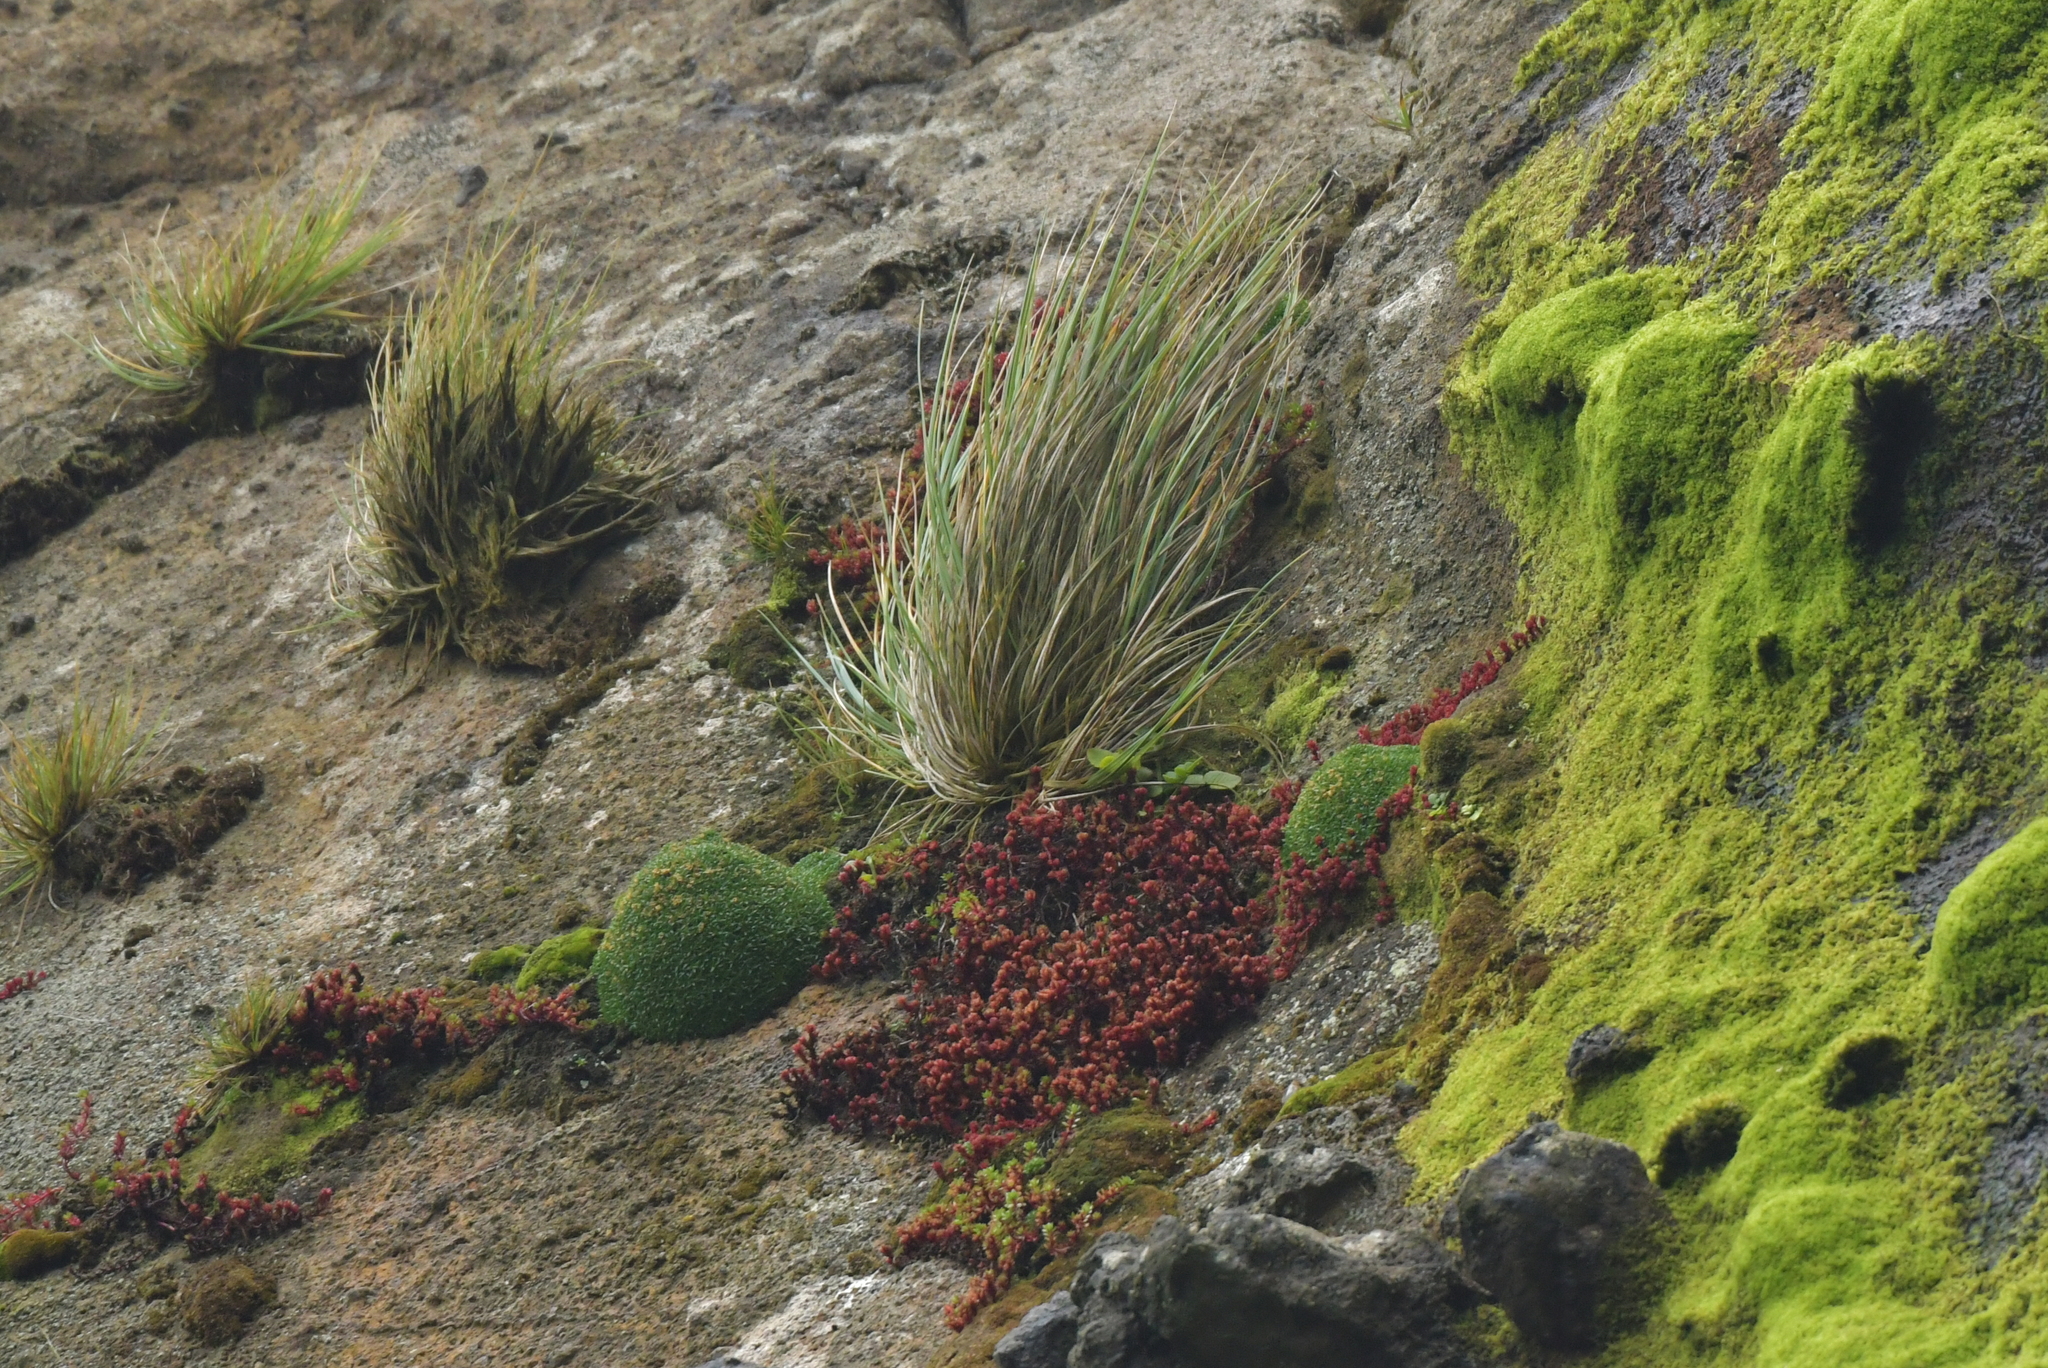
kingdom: Plantae
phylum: Tracheophyta
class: Magnoliopsida
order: Saxifragales
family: Crassulaceae
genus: Crassula
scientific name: Crassula moschata
